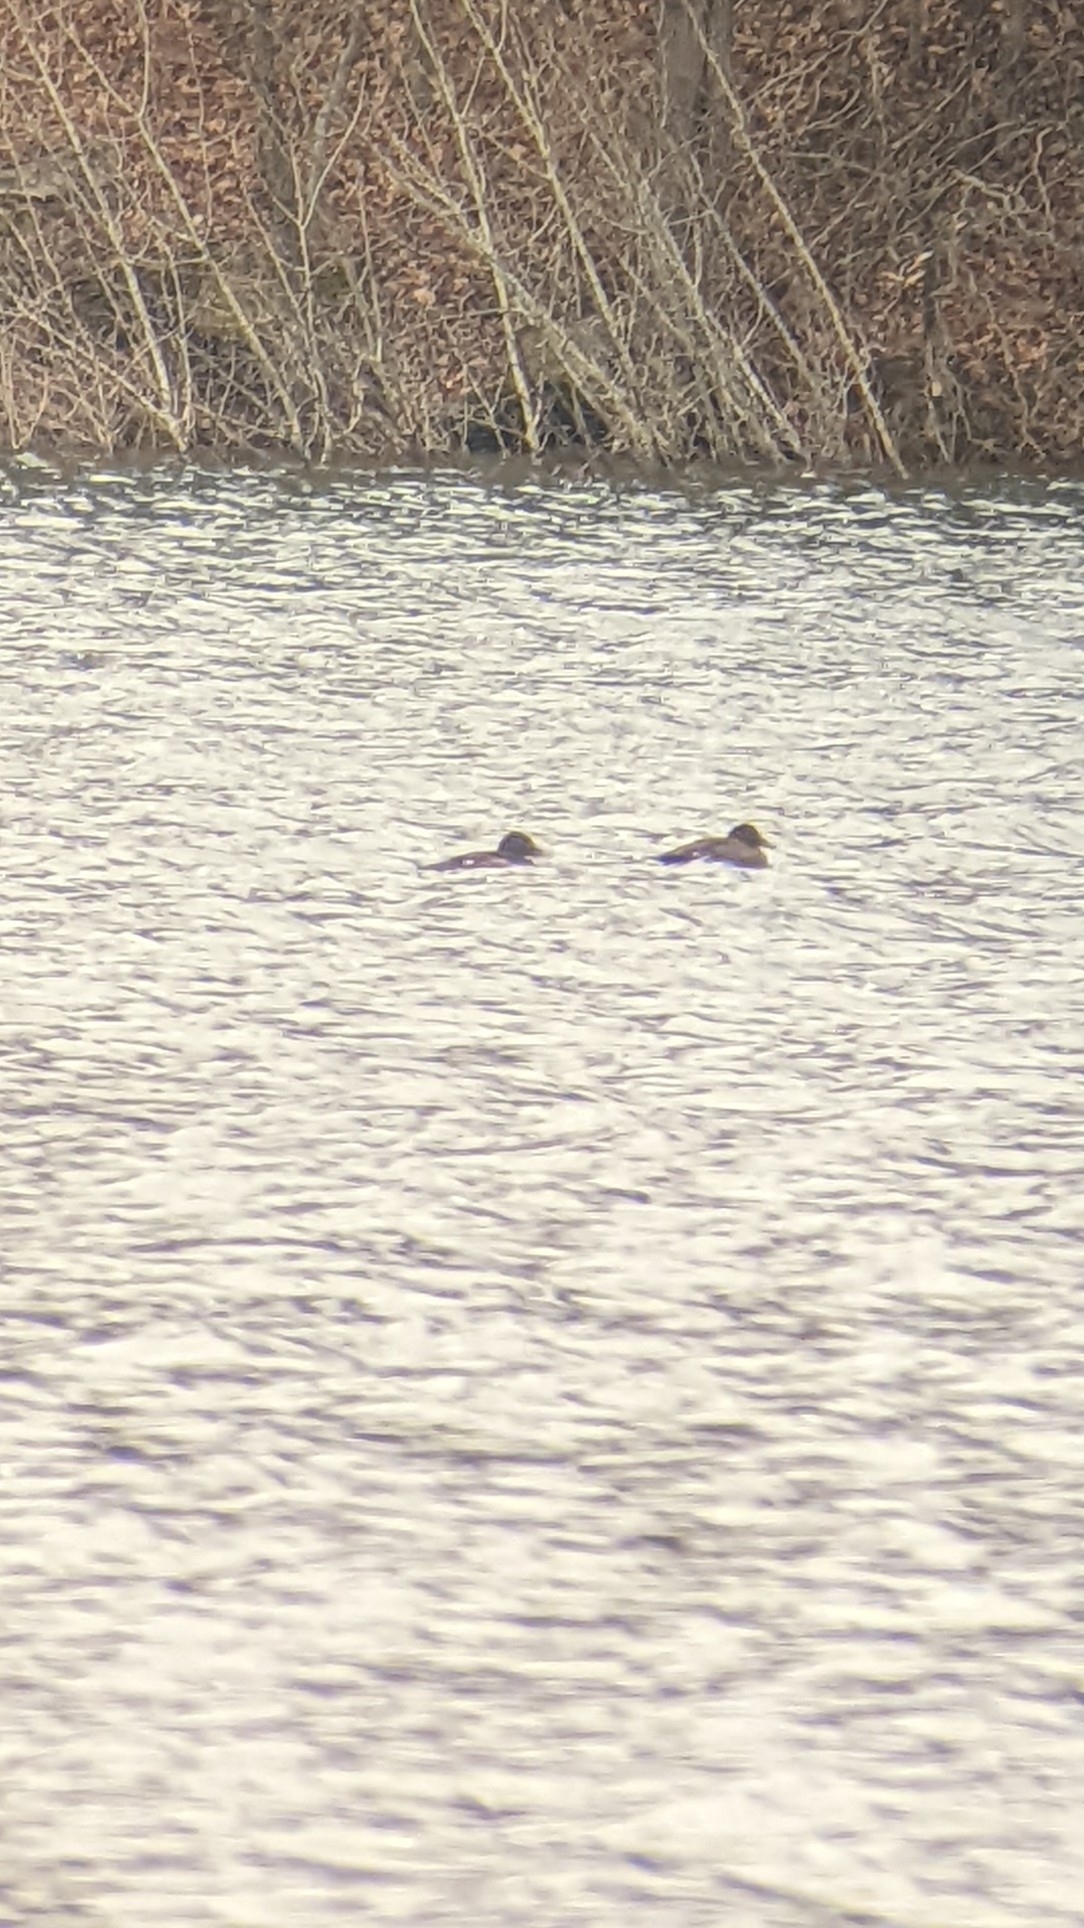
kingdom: Animalia
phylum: Chordata
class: Aves
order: Anseriformes
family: Anatidae
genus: Melanitta
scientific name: Melanitta deglandi
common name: White-winged scoter
